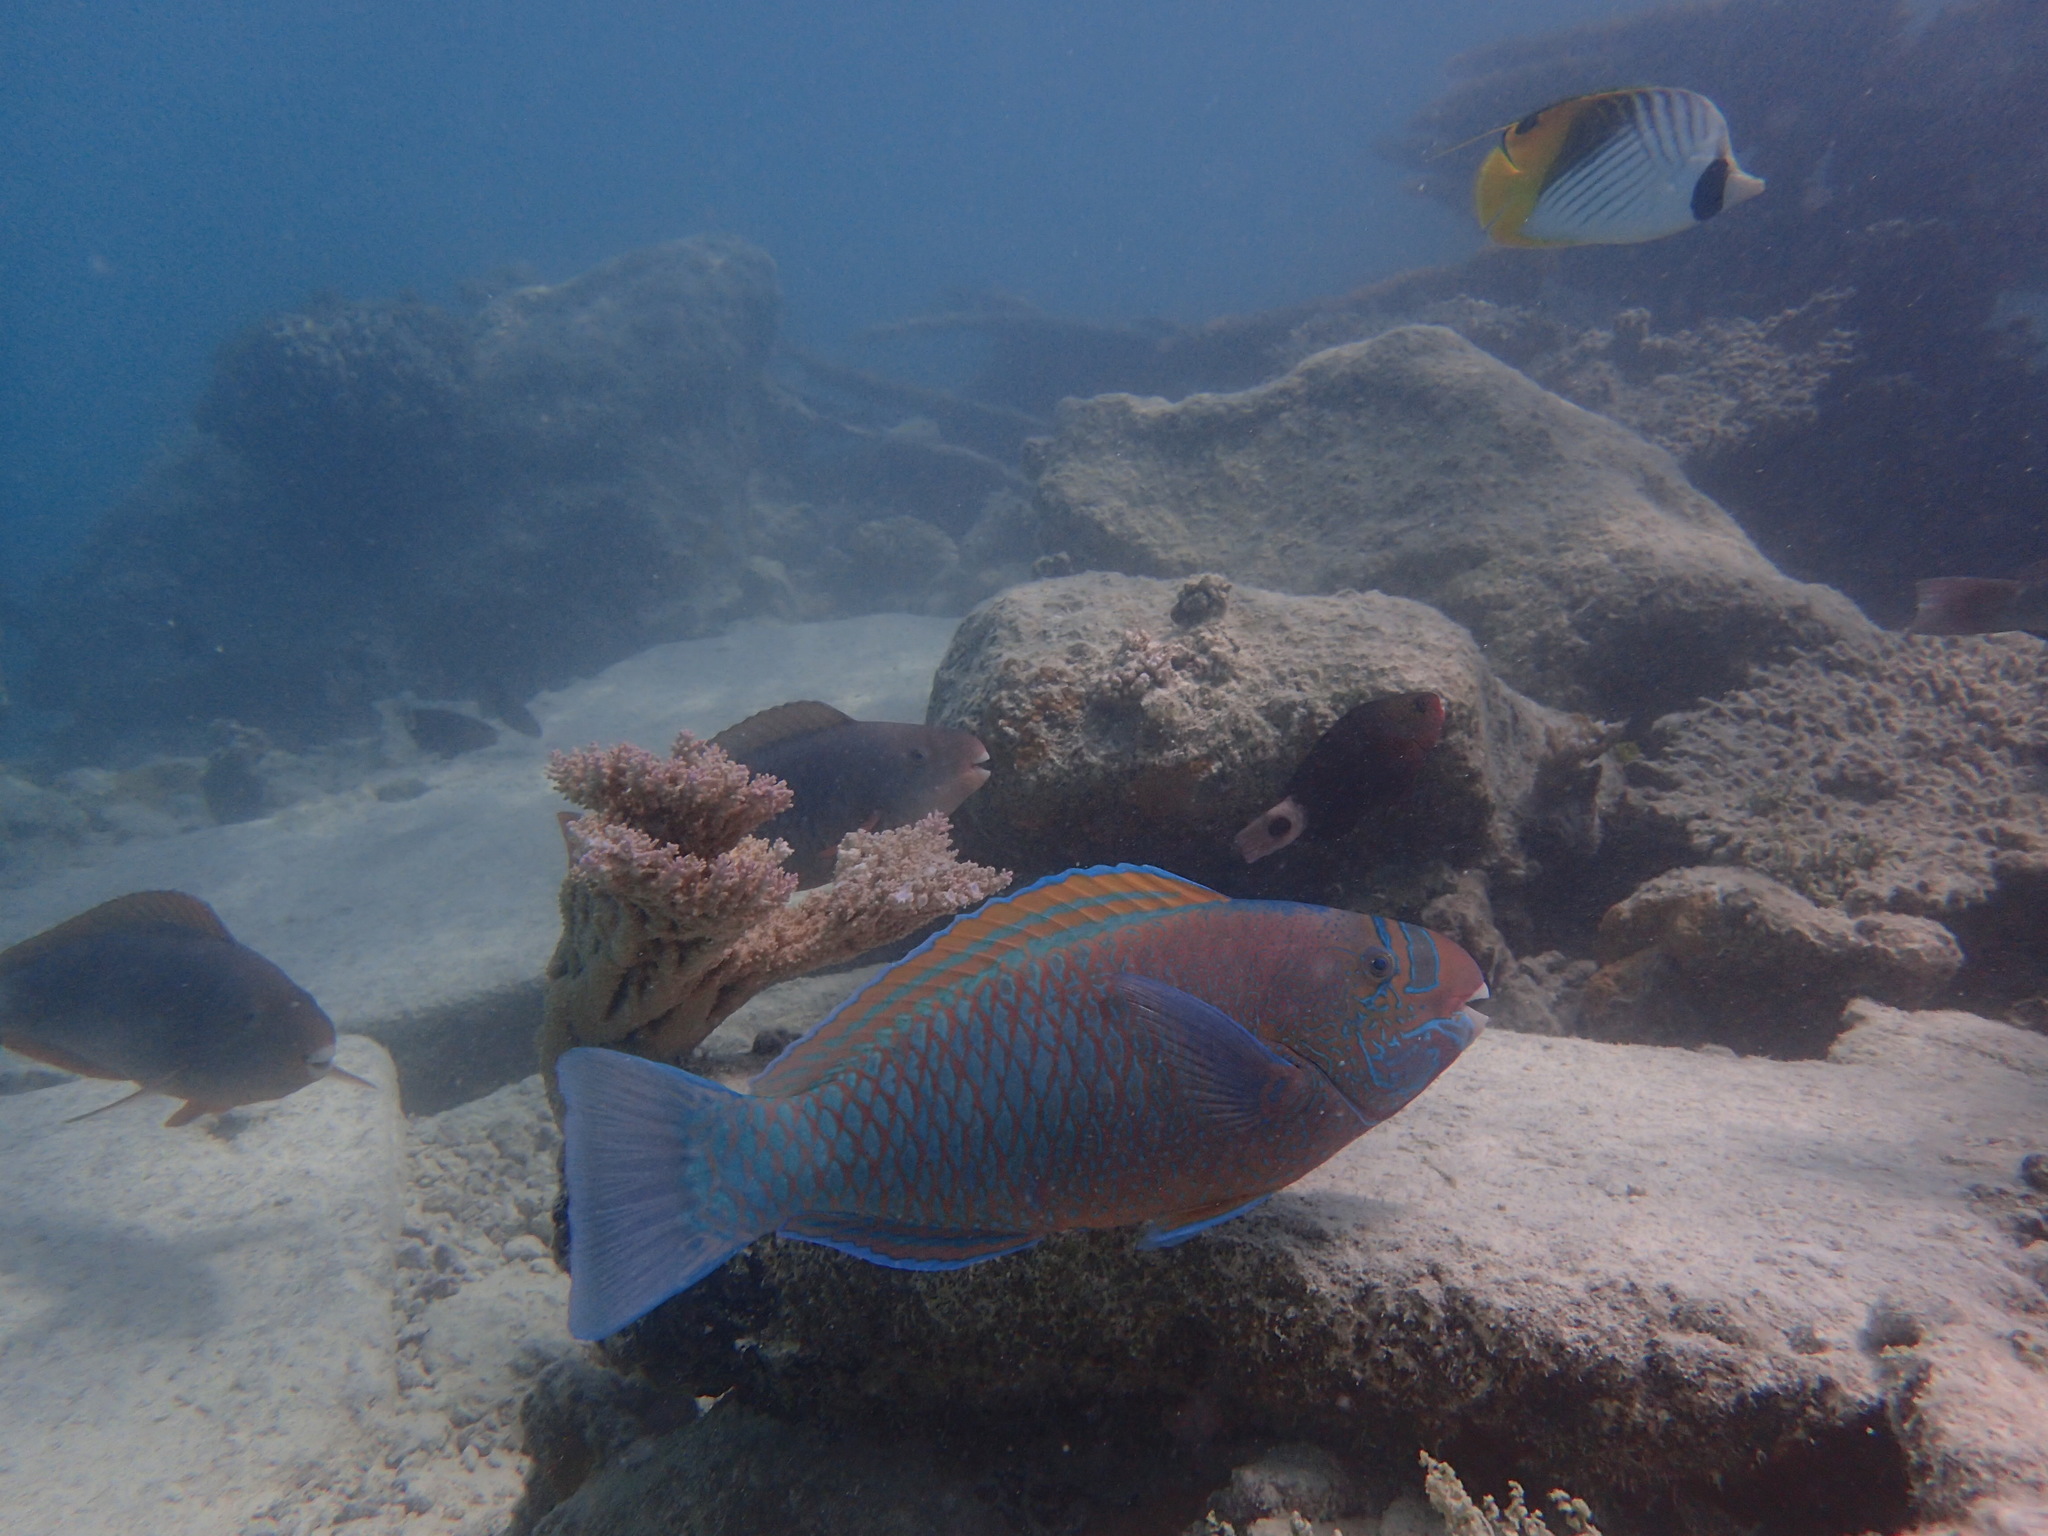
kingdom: Animalia
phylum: Chordata
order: Perciformes
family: Scaridae
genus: Chlorurus
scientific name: Chlorurus perspicillatus
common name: Spectacled parrotfish
